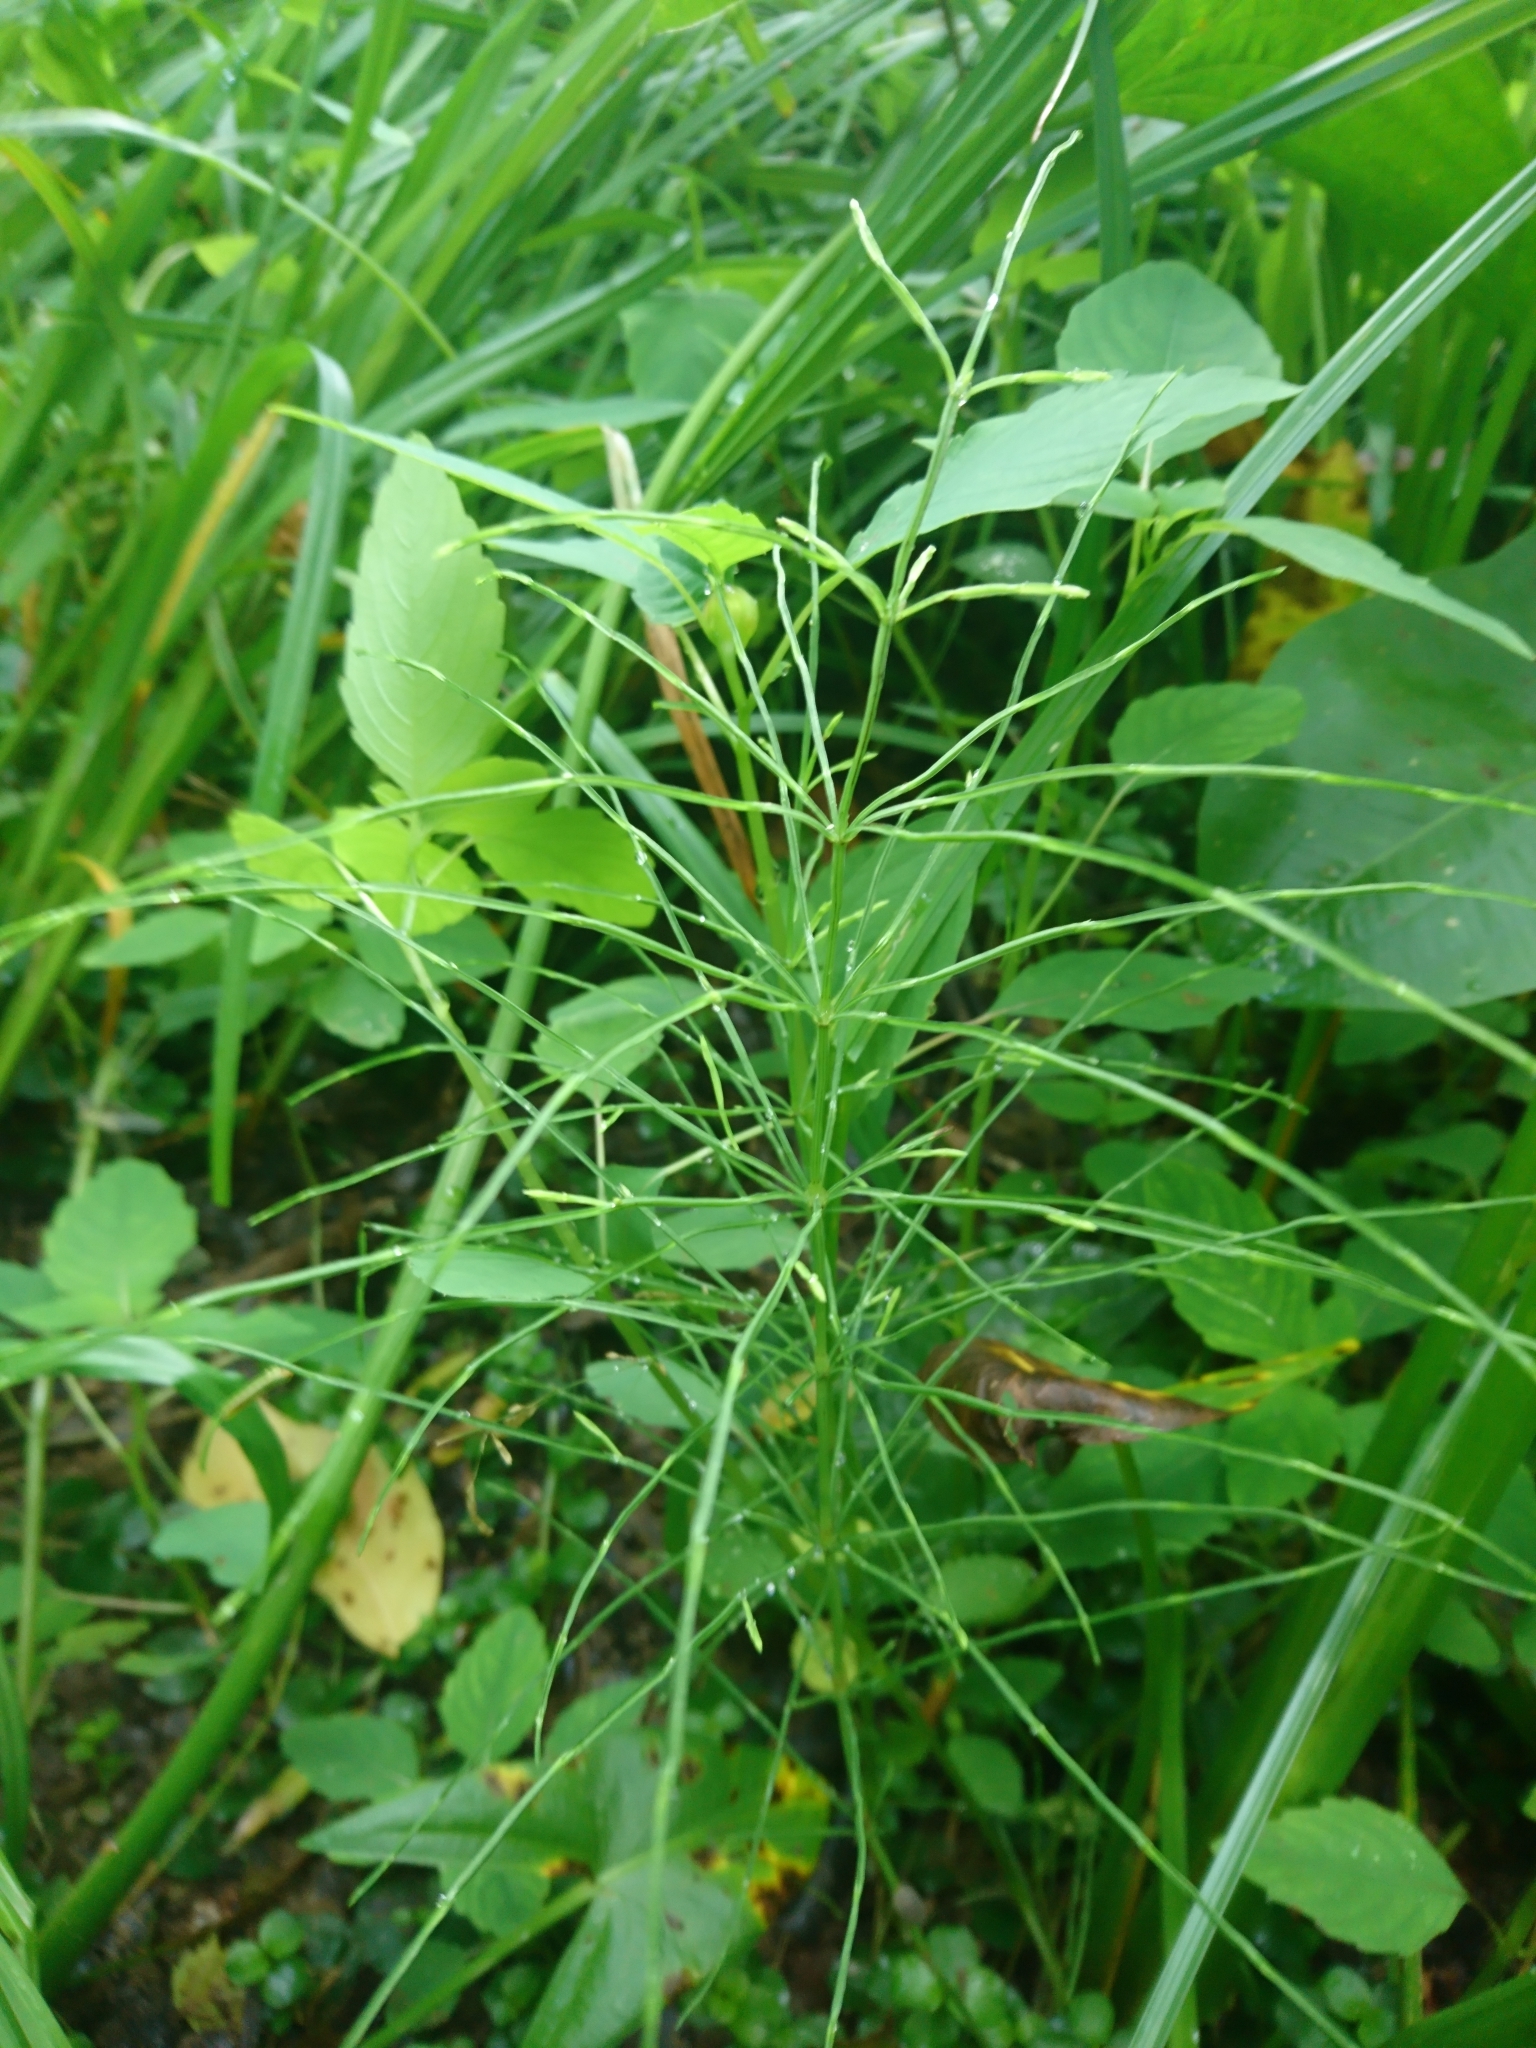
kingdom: Plantae
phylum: Tracheophyta
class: Polypodiopsida
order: Equisetales
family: Equisetaceae
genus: Equisetum
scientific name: Equisetum arvense
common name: Field horsetail
